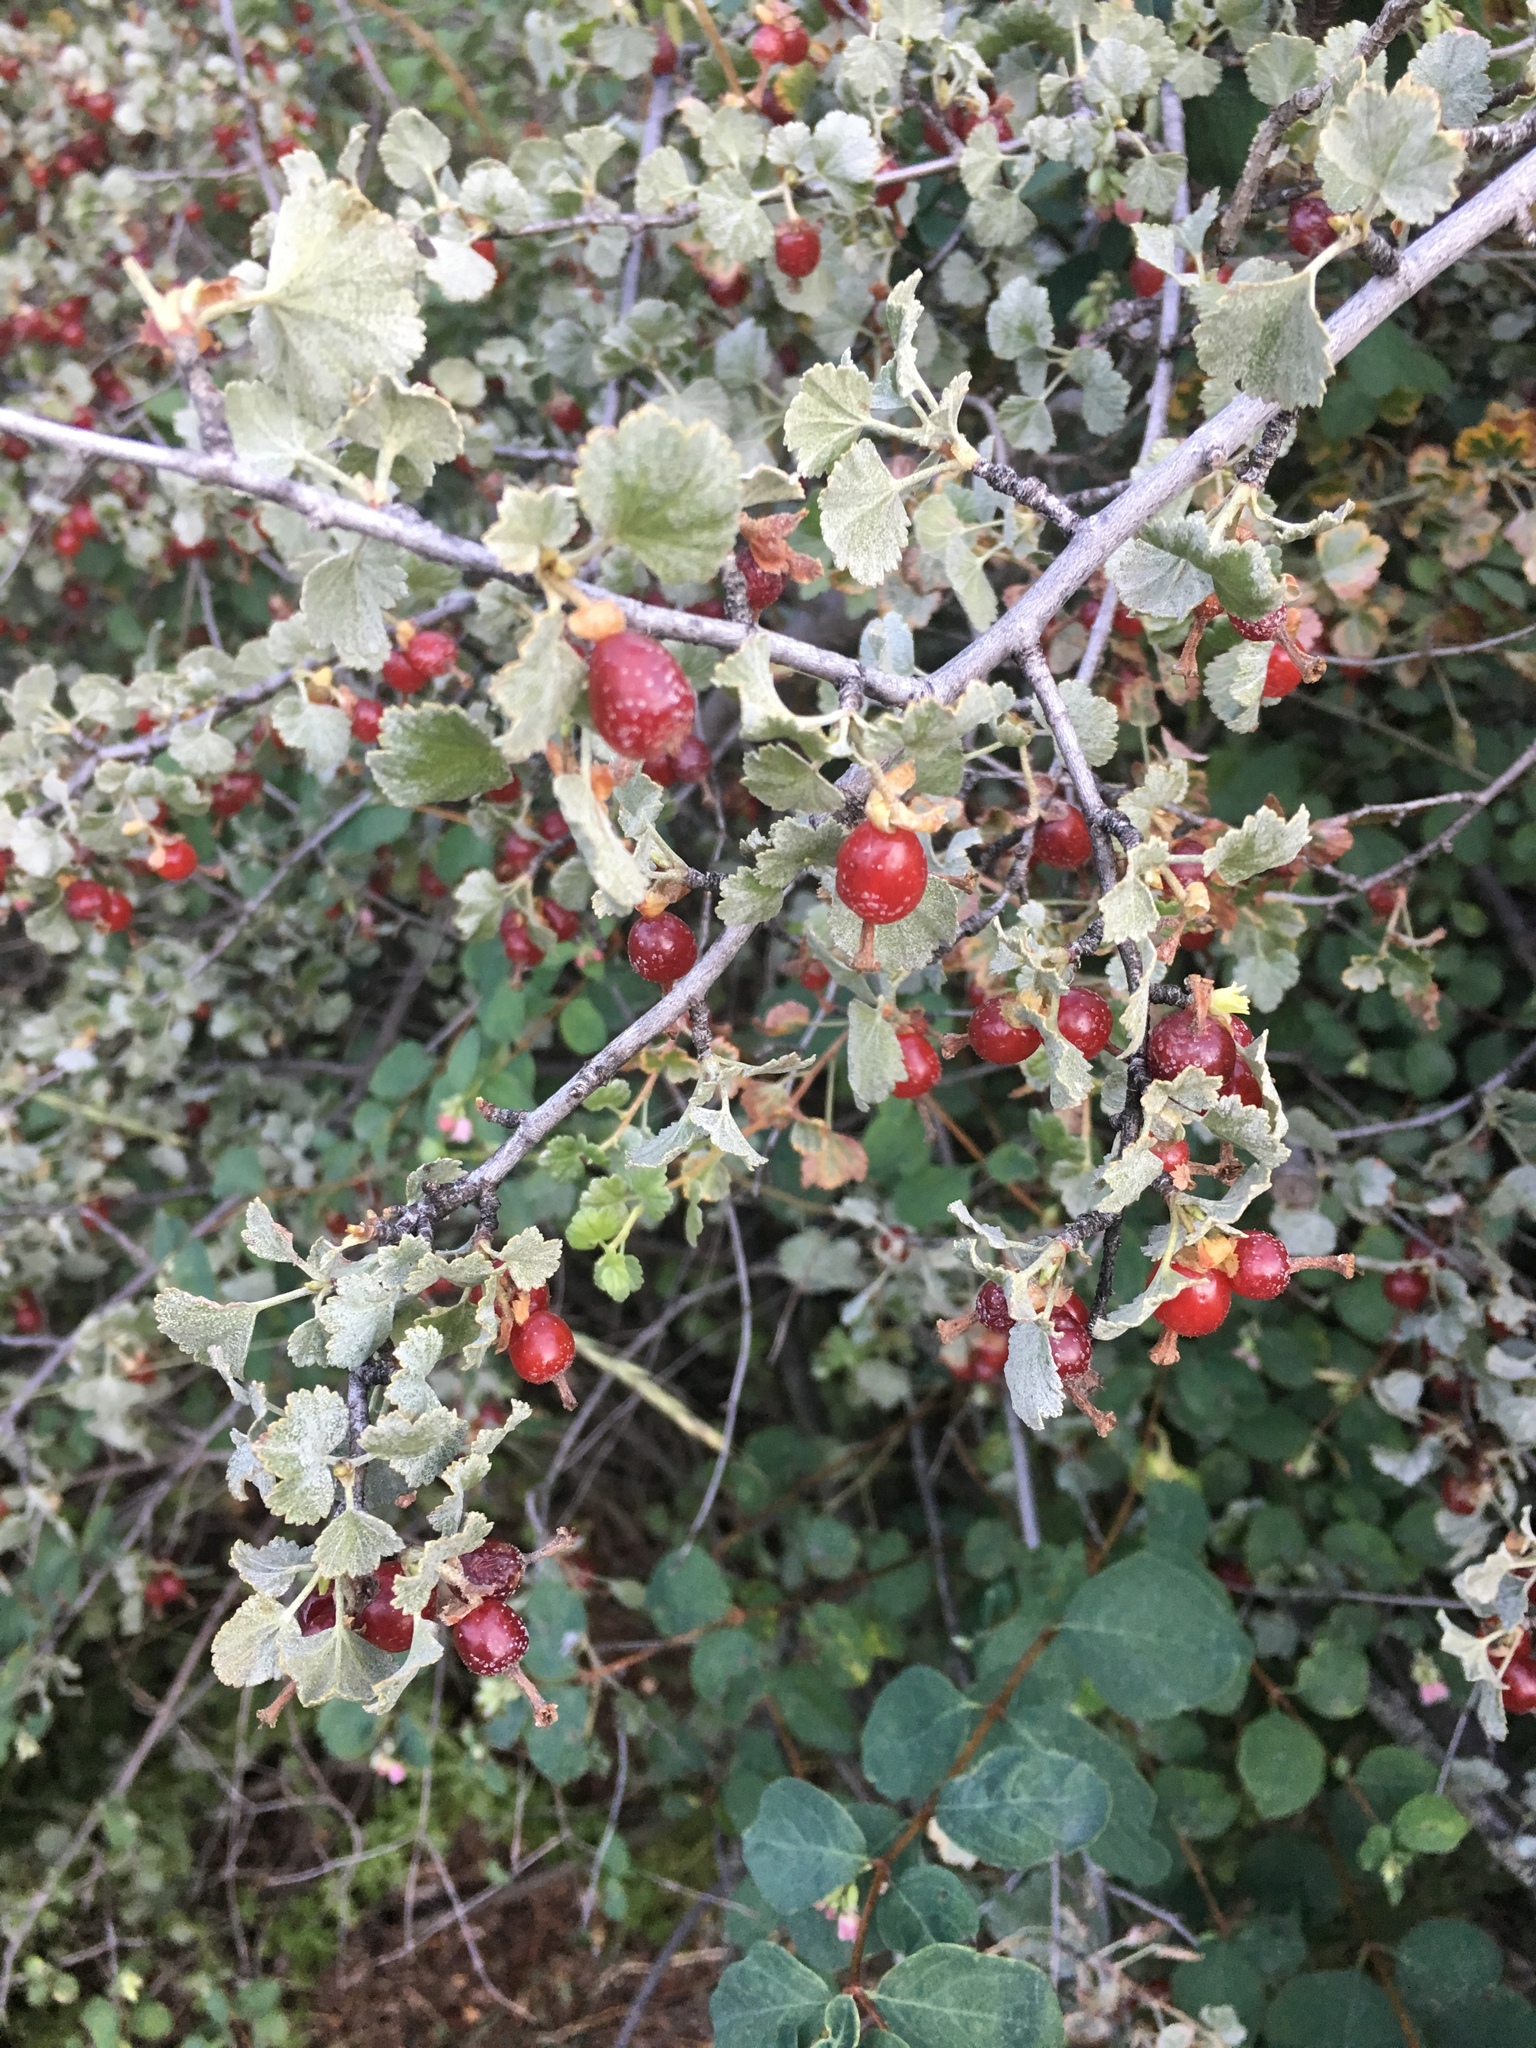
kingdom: Plantae
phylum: Tracheophyta
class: Magnoliopsida
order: Saxifragales
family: Grossulariaceae
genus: Ribes
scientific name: Ribes cereum
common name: Wax currant
